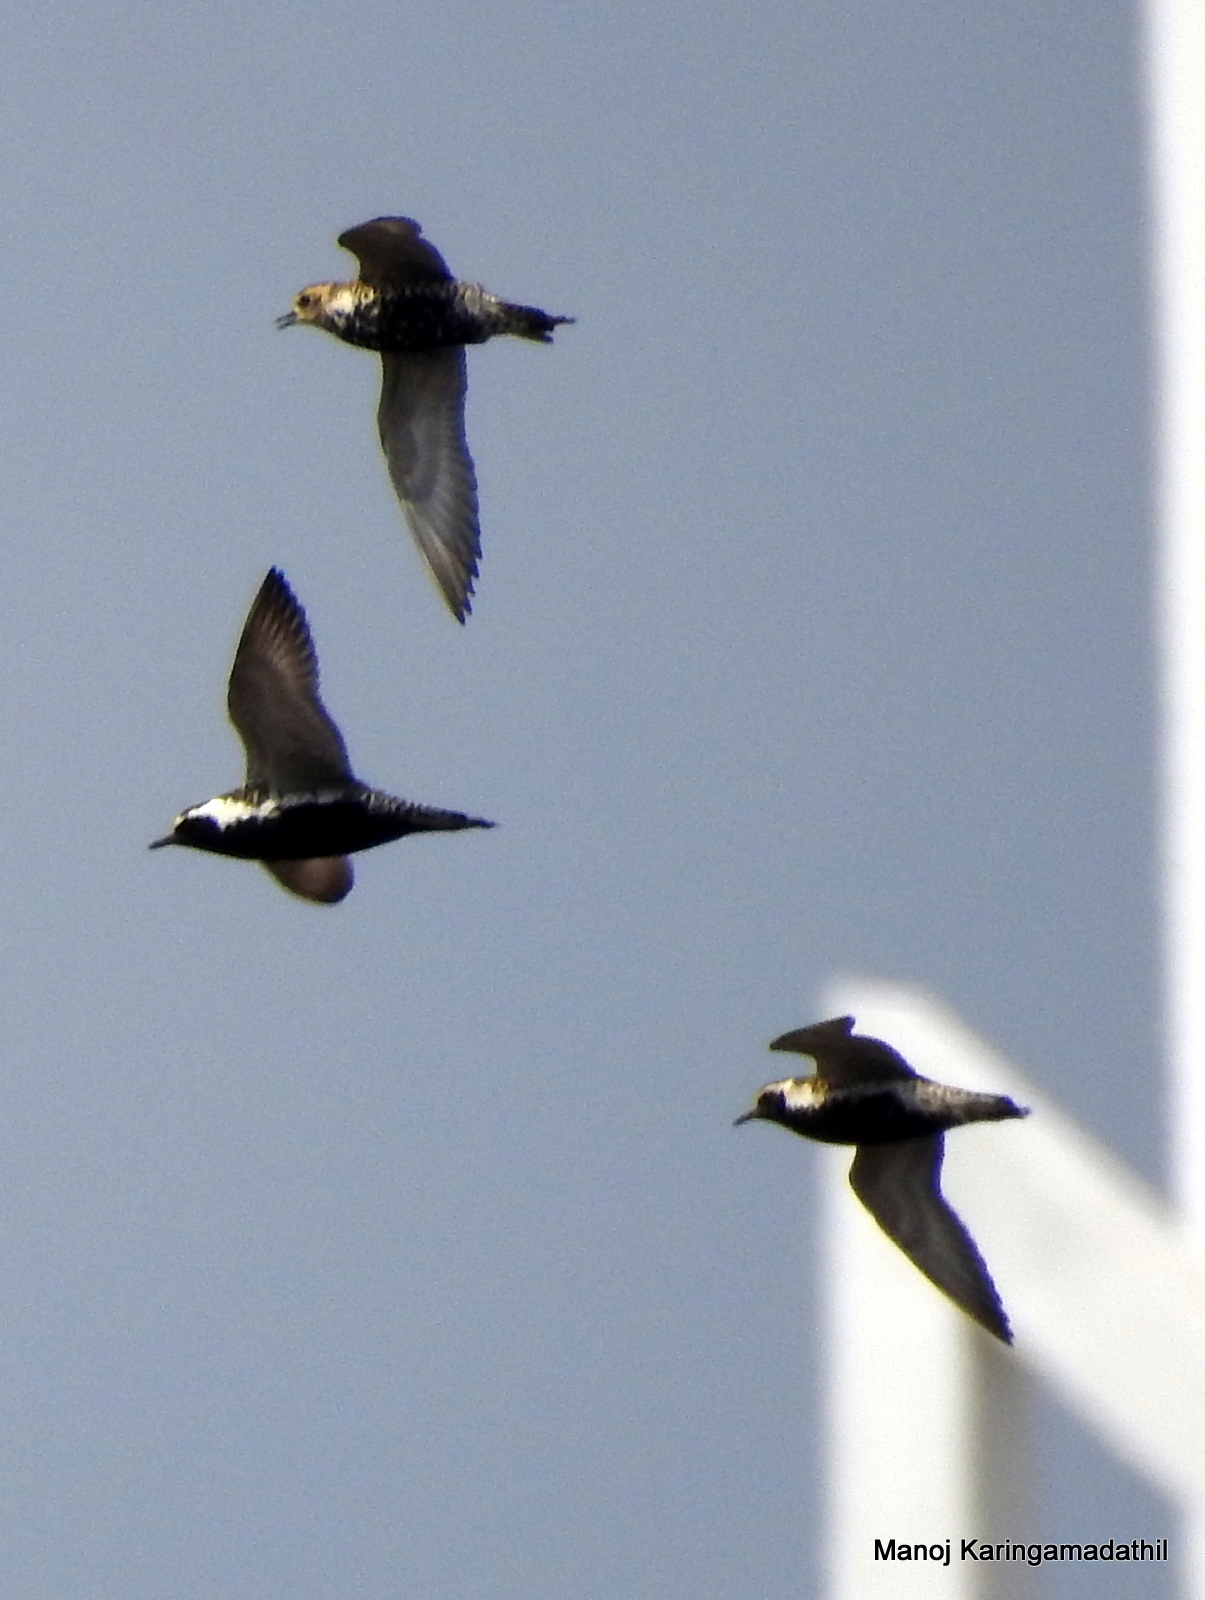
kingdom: Animalia
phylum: Chordata
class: Aves
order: Charadriiformes
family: Charadriidae
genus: Pluvialis
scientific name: Pluvialis fulva
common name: Pacific golden plover
